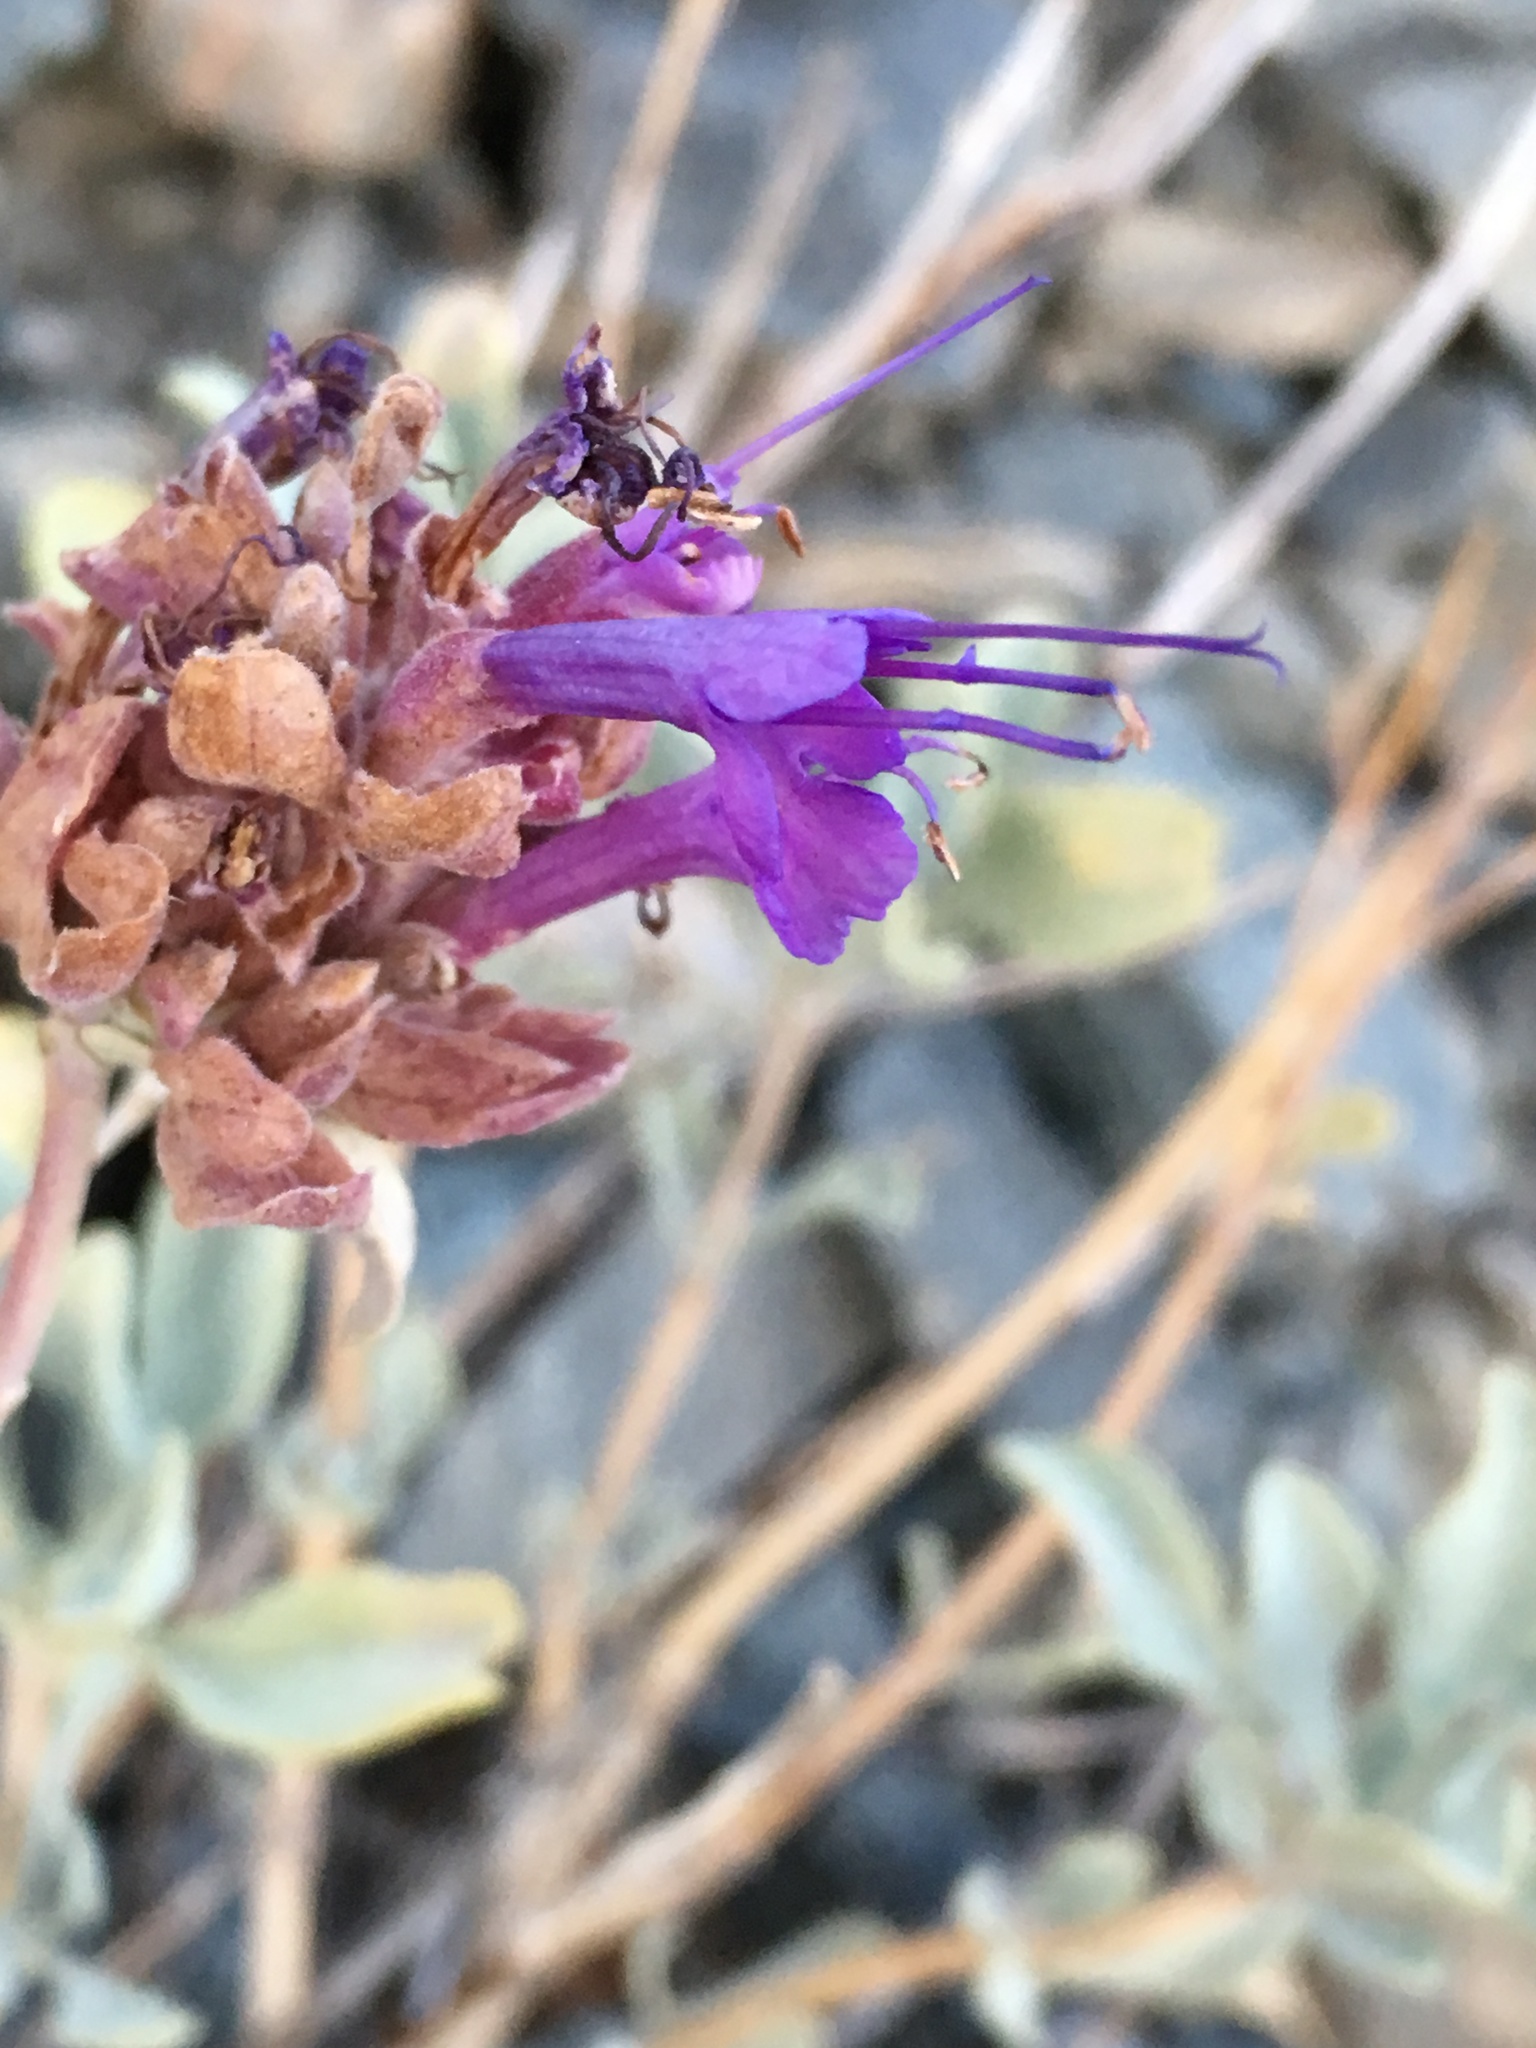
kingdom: Plantae
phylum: Tracheophyta
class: Magnoliopsida
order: Lamiales
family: Lamiaceae
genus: Salvia
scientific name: Salvia pachyphylla
